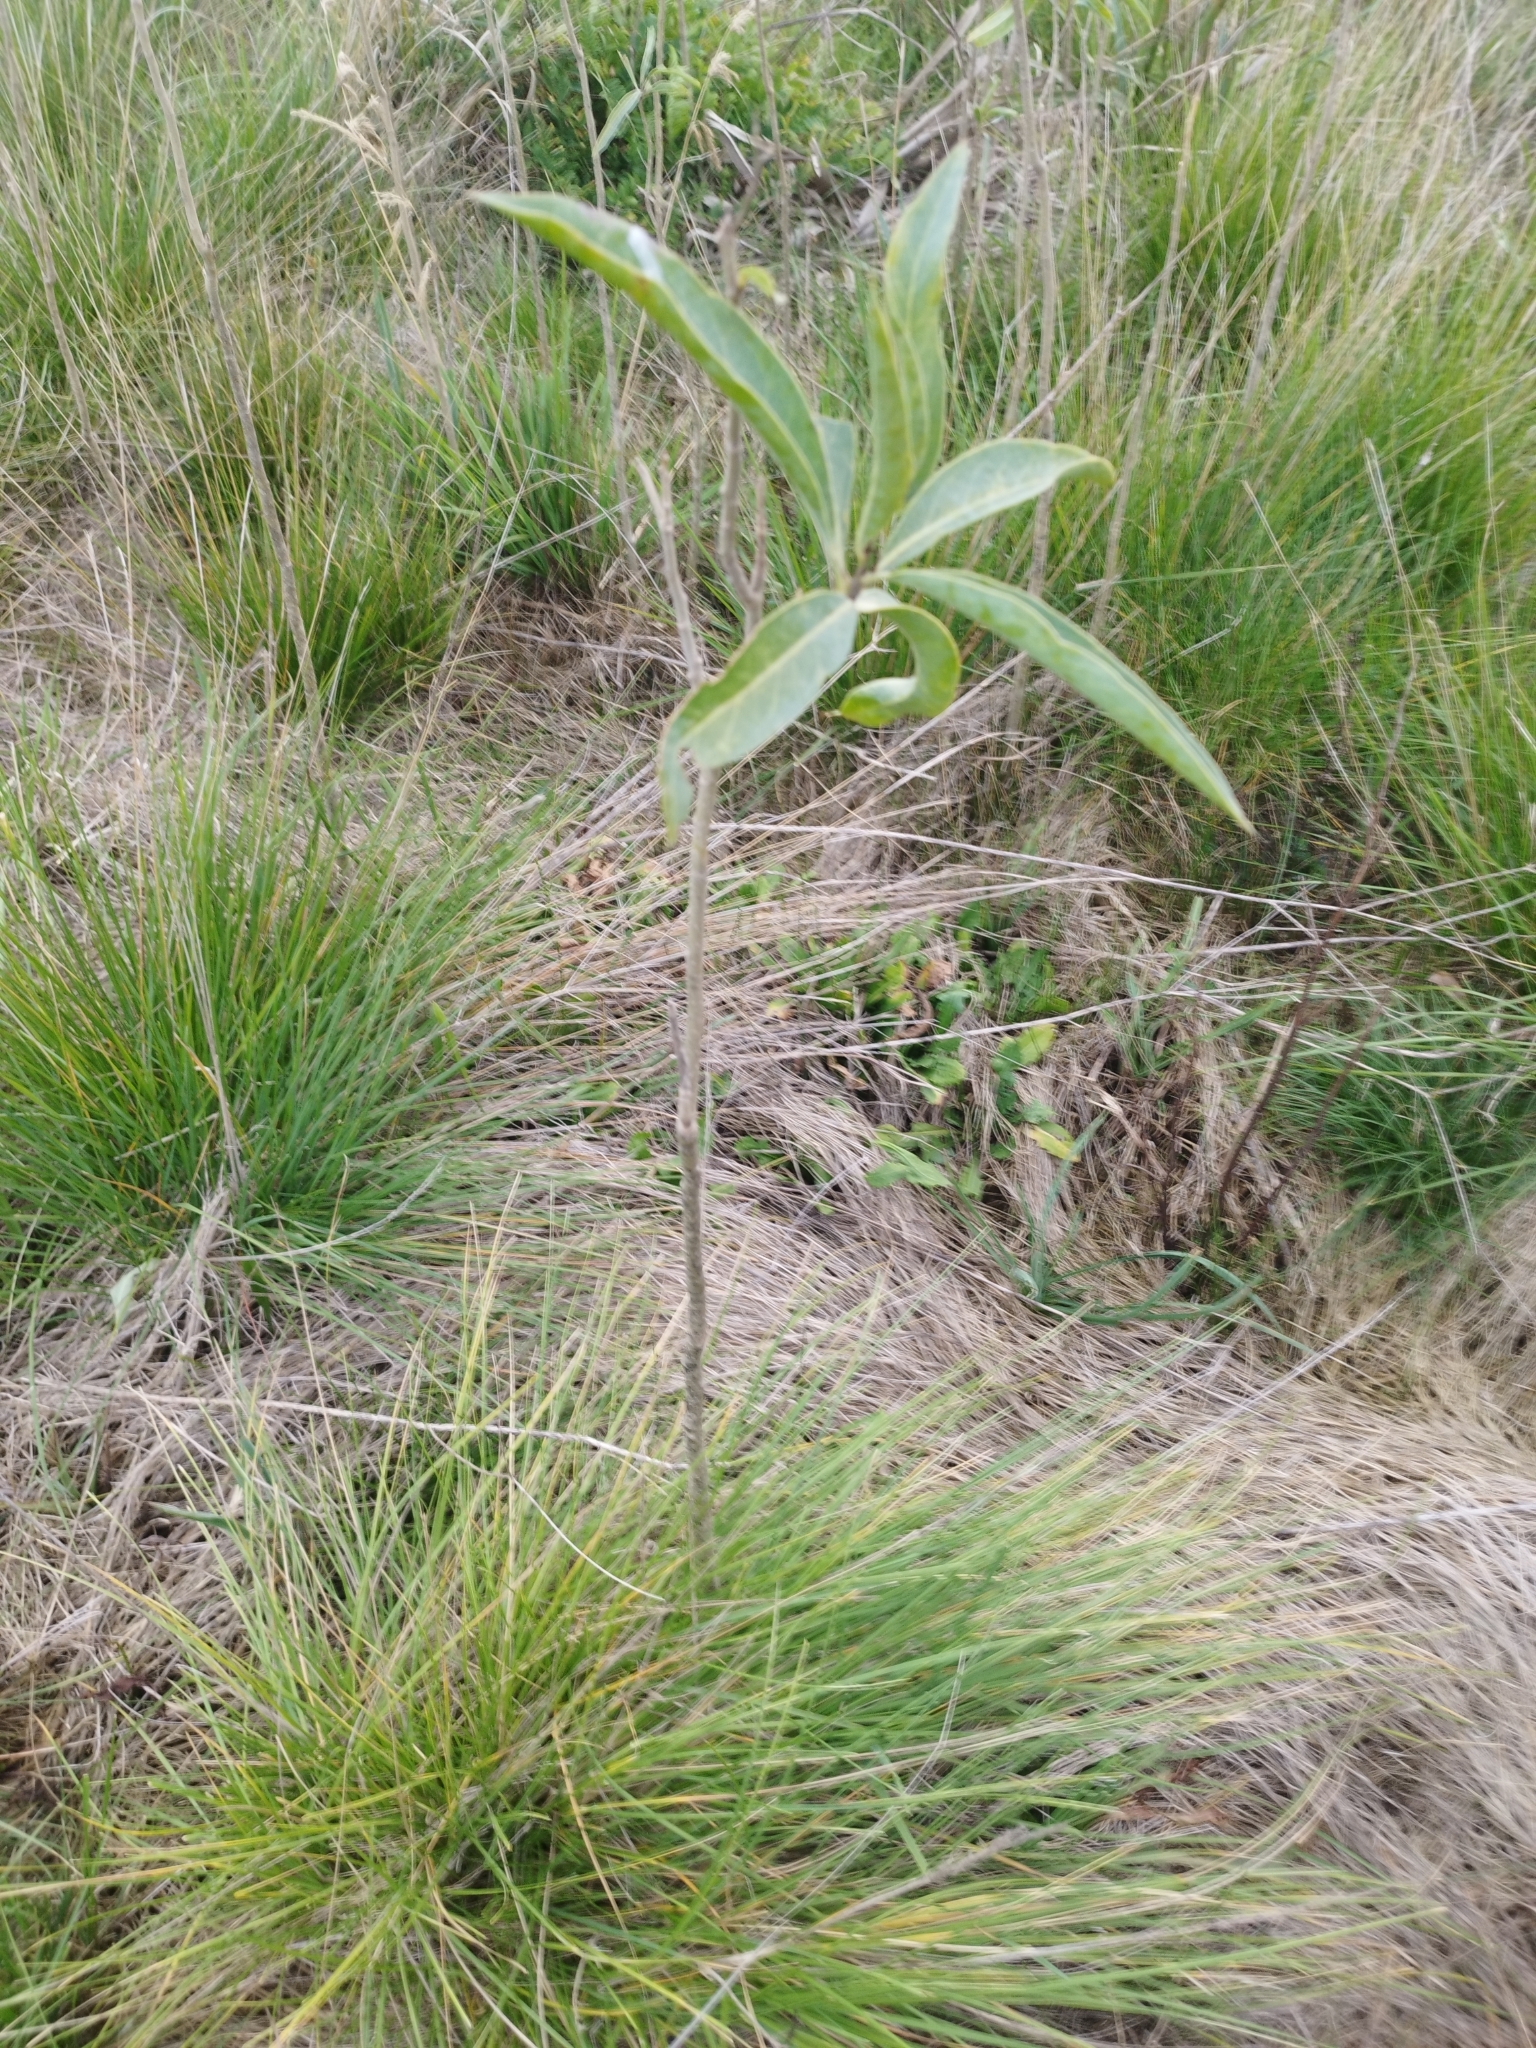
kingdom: Plantae
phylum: Tracheophyta
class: Magnoliopsida
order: Solanales
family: Solanaceae
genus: Solanum
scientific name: Solanum glaucophyllum
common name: Waxyleaf nightshade
